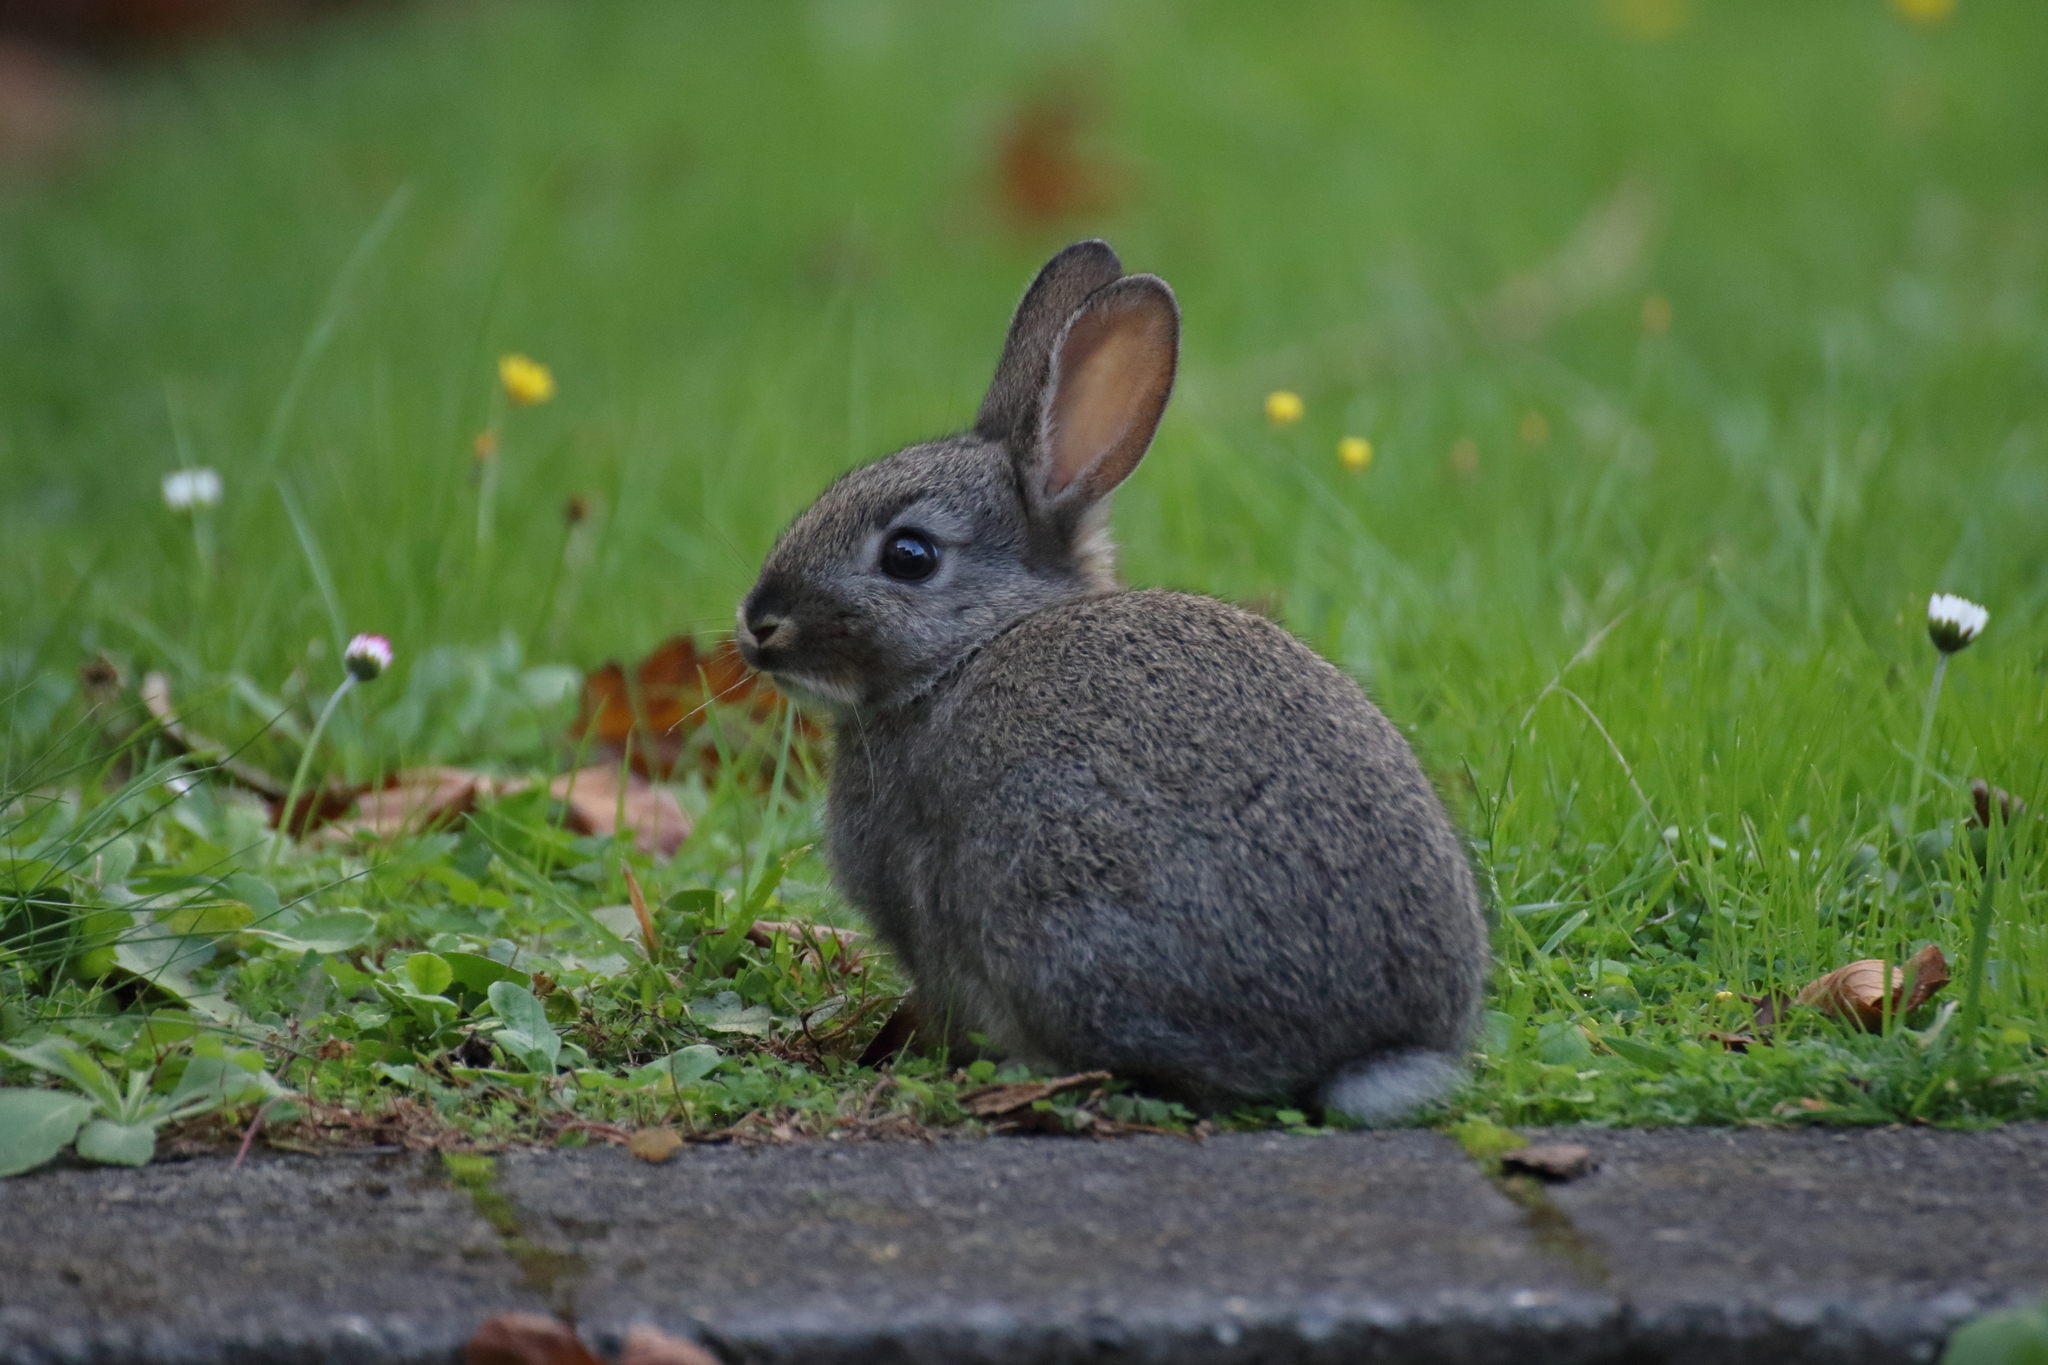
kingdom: Animalia
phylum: Chordata
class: Mammalia
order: Lagomorpha
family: Leporidae
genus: Oryctolagus
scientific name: Oryctolagus cuniculus
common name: European rabbit
